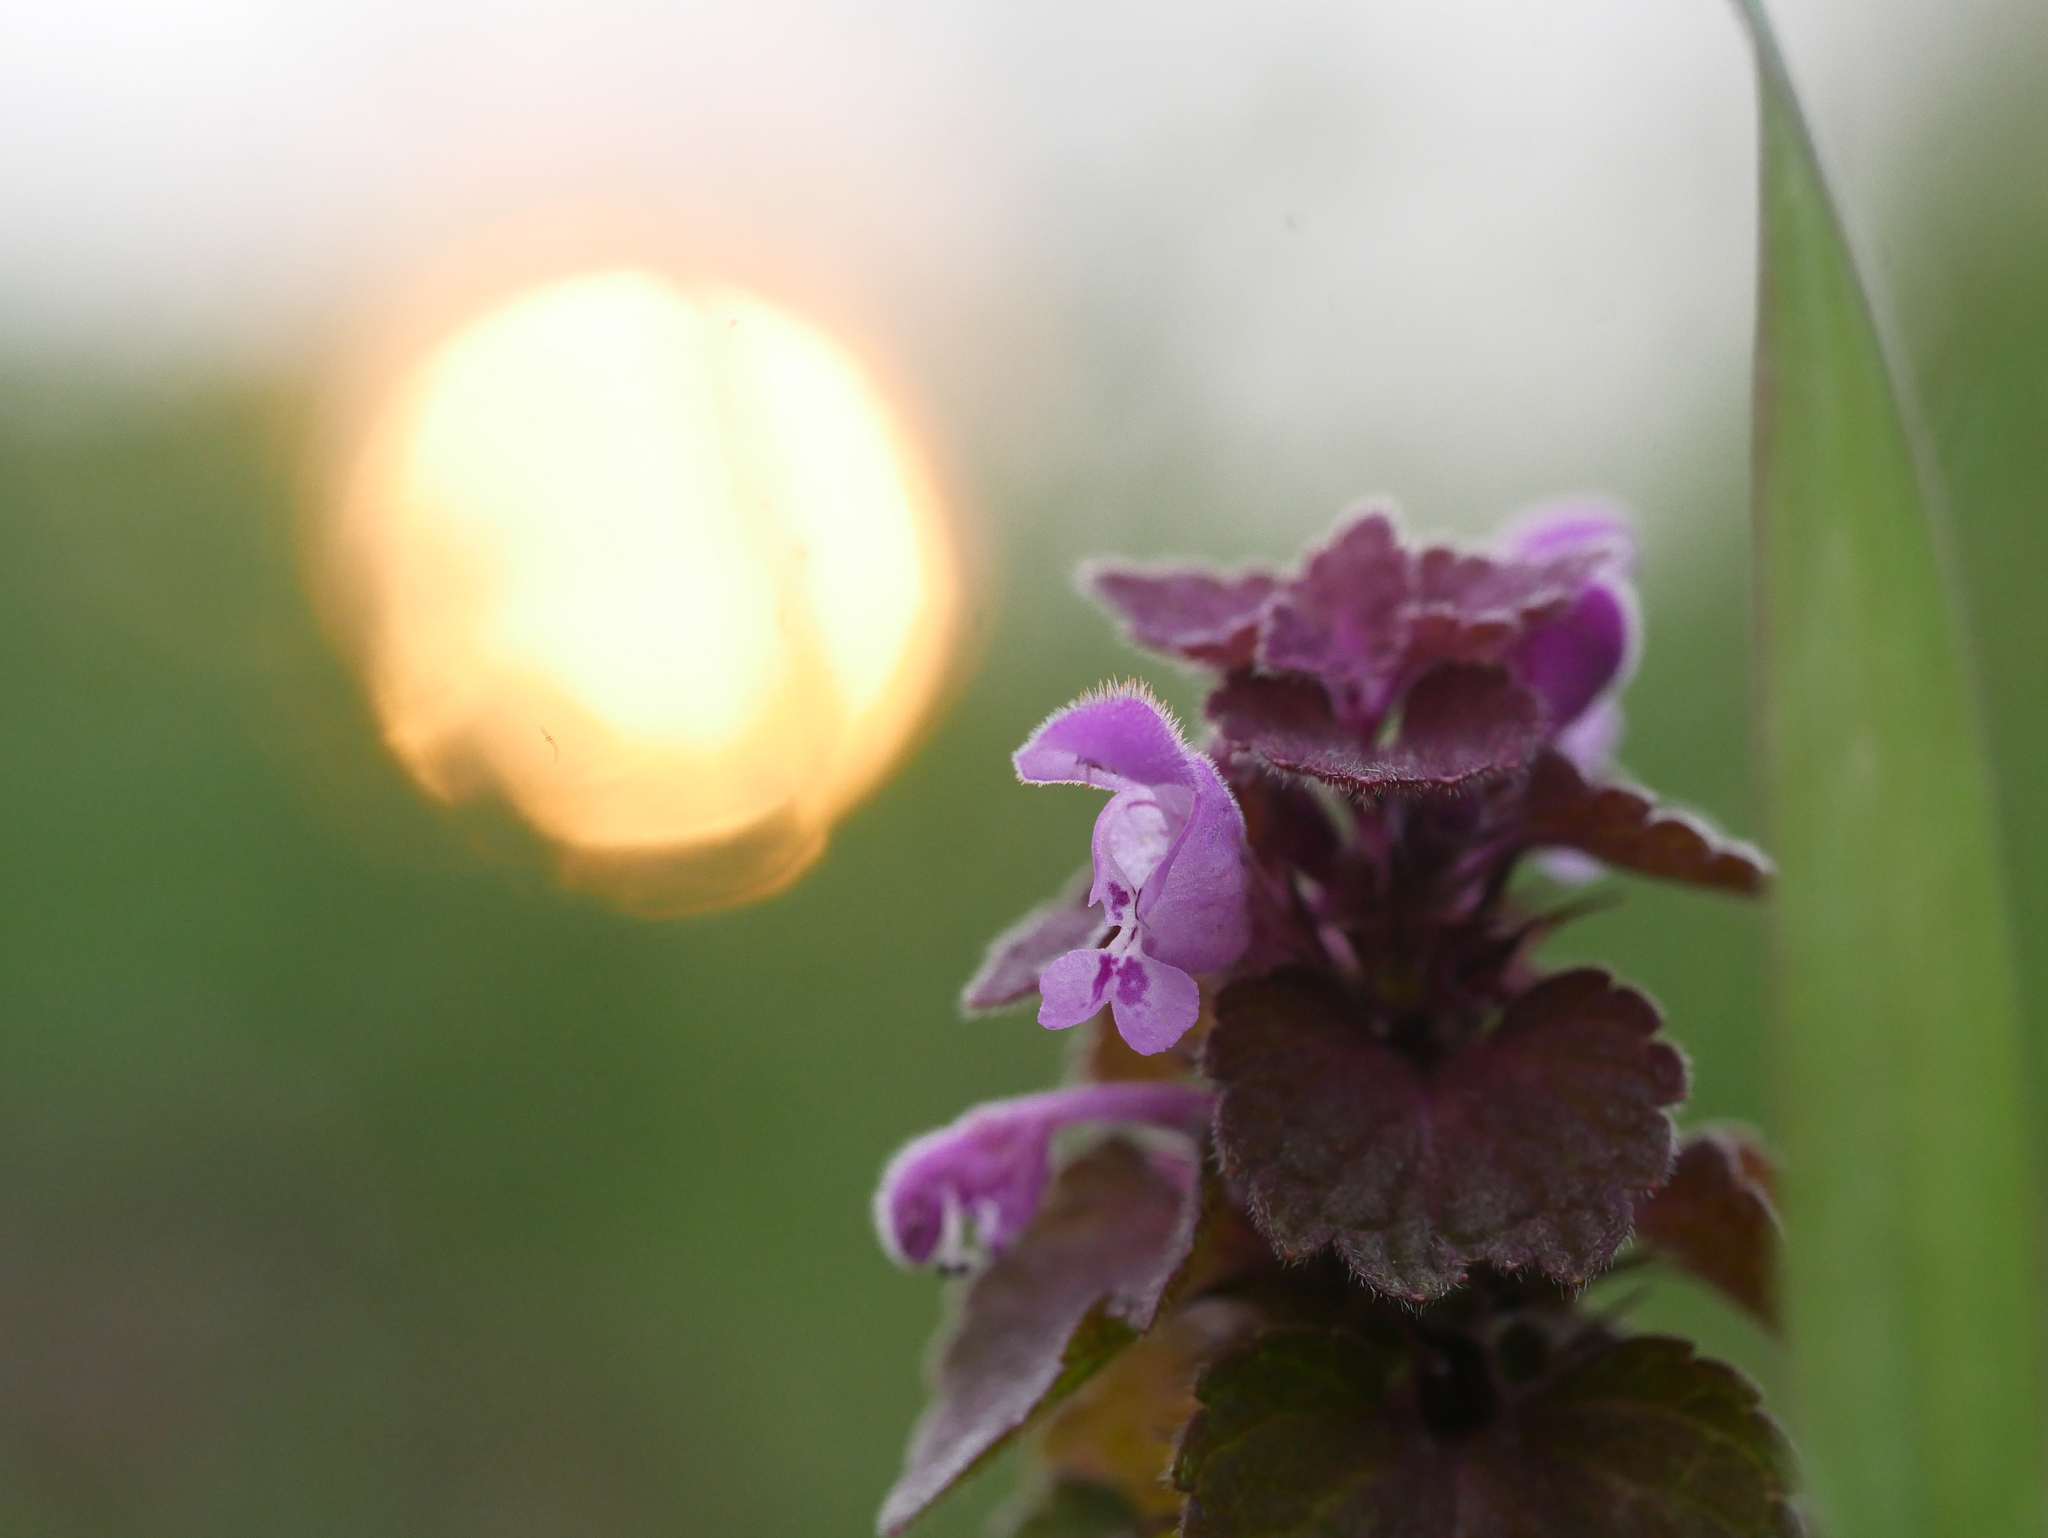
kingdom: Plantae
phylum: Tracheophyta
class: Magnoliopsida
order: Lamiales
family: Lamiaceae
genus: Lamium
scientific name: Lamium purpureum
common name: Red dead-nettle
